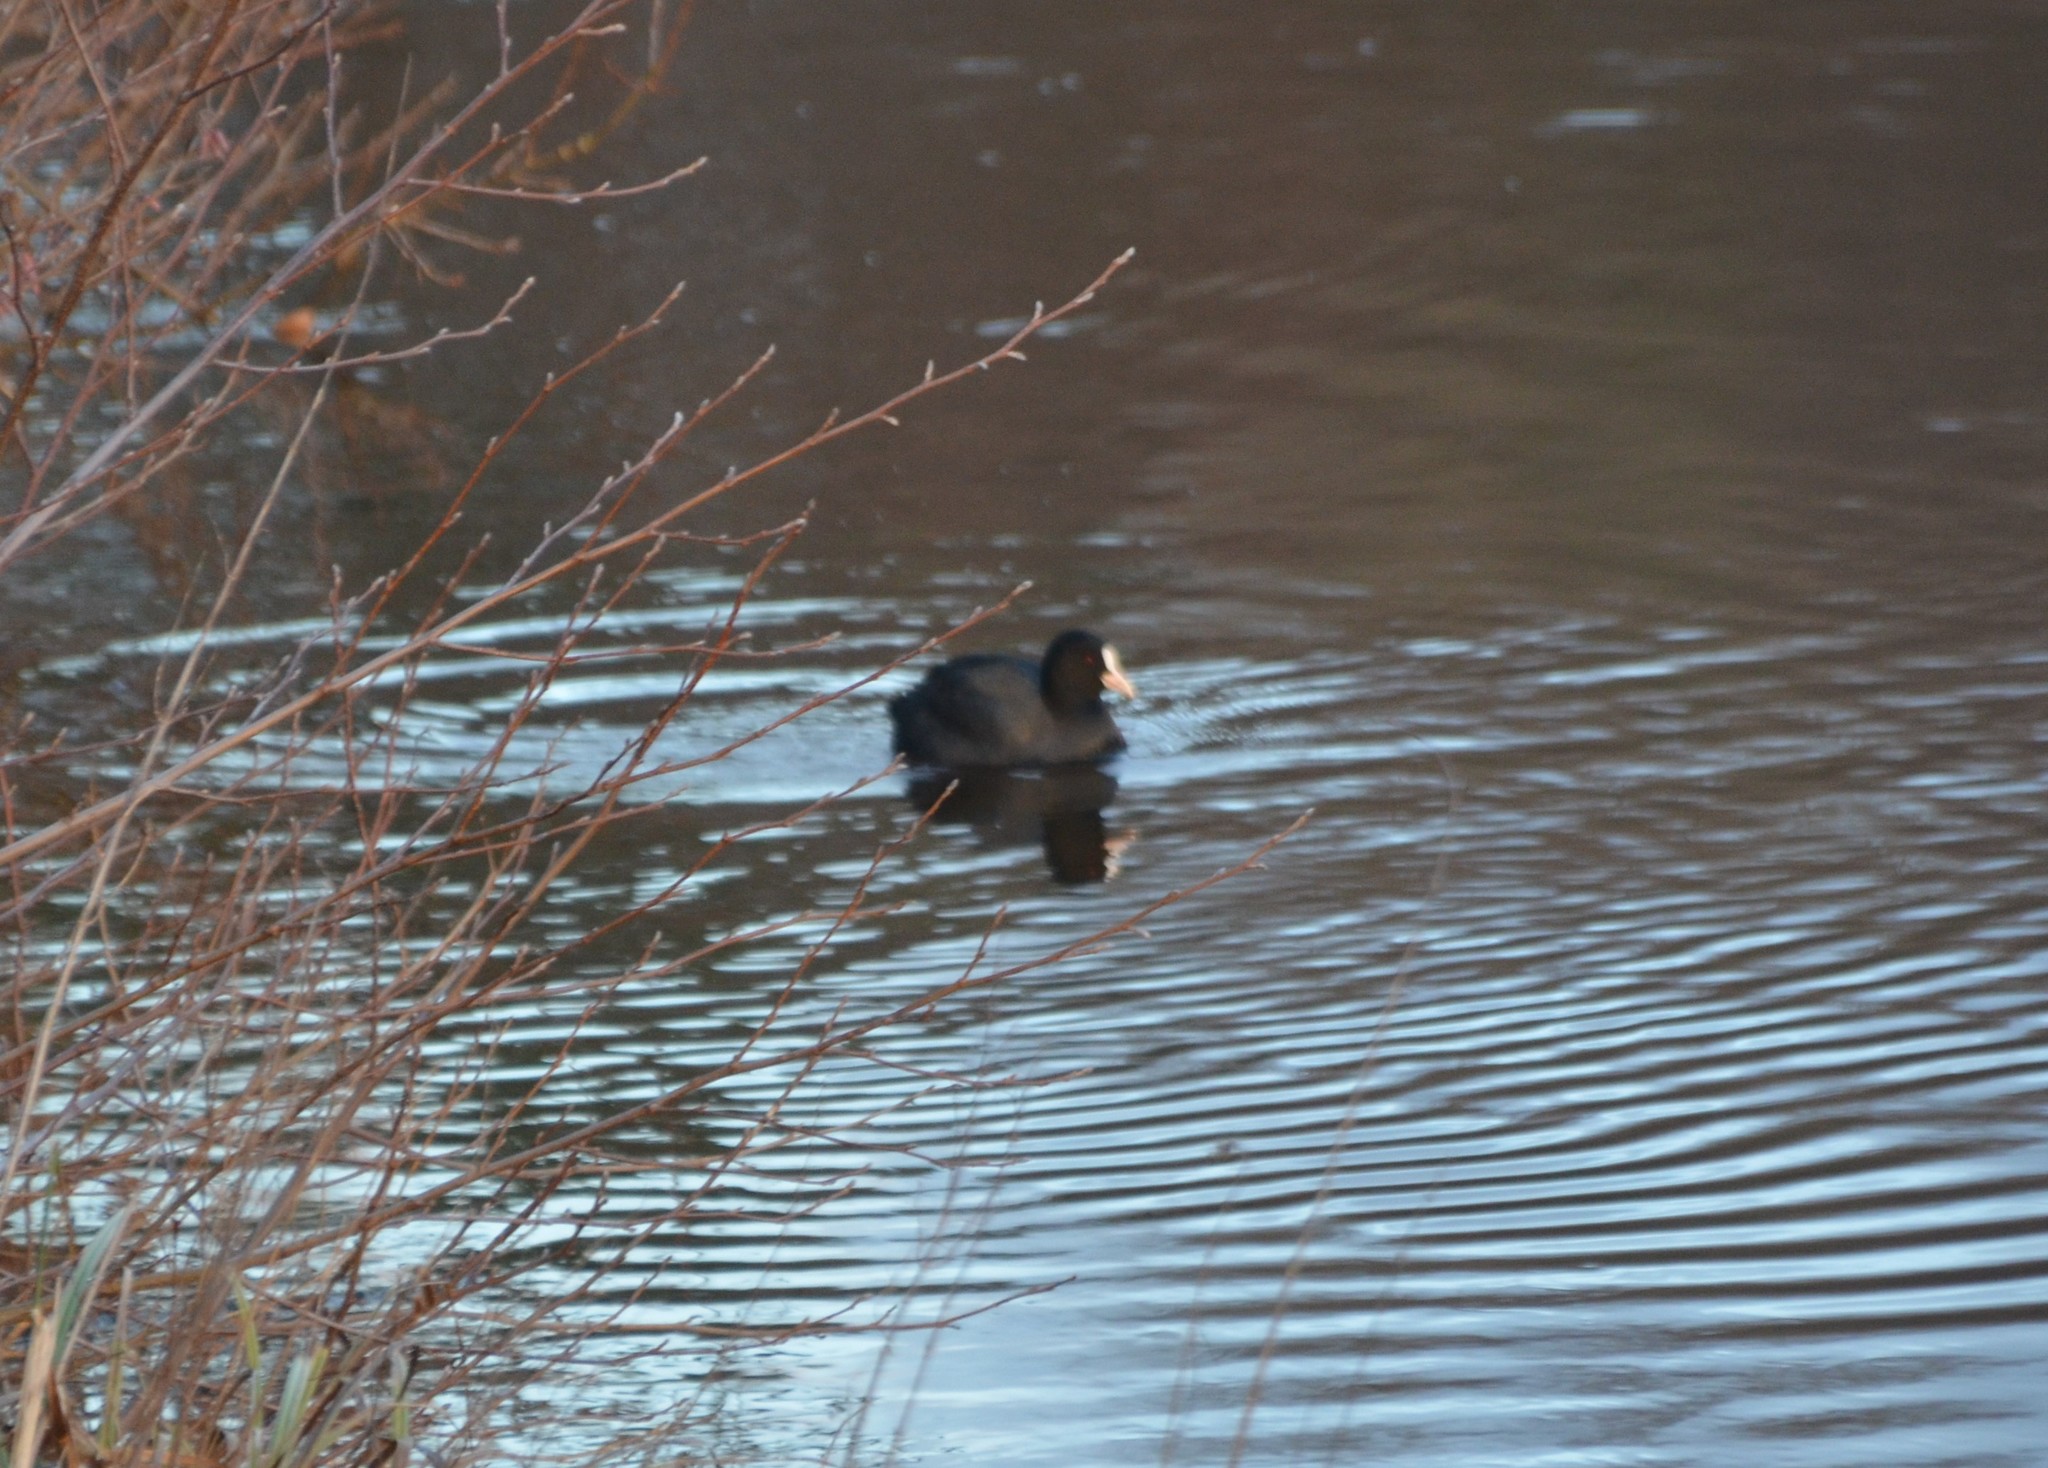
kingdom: Animalia
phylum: Chordata
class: Aves
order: Gruiformes
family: Rallidae
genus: Fulica
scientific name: Fulica atra
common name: Eurasian coot
